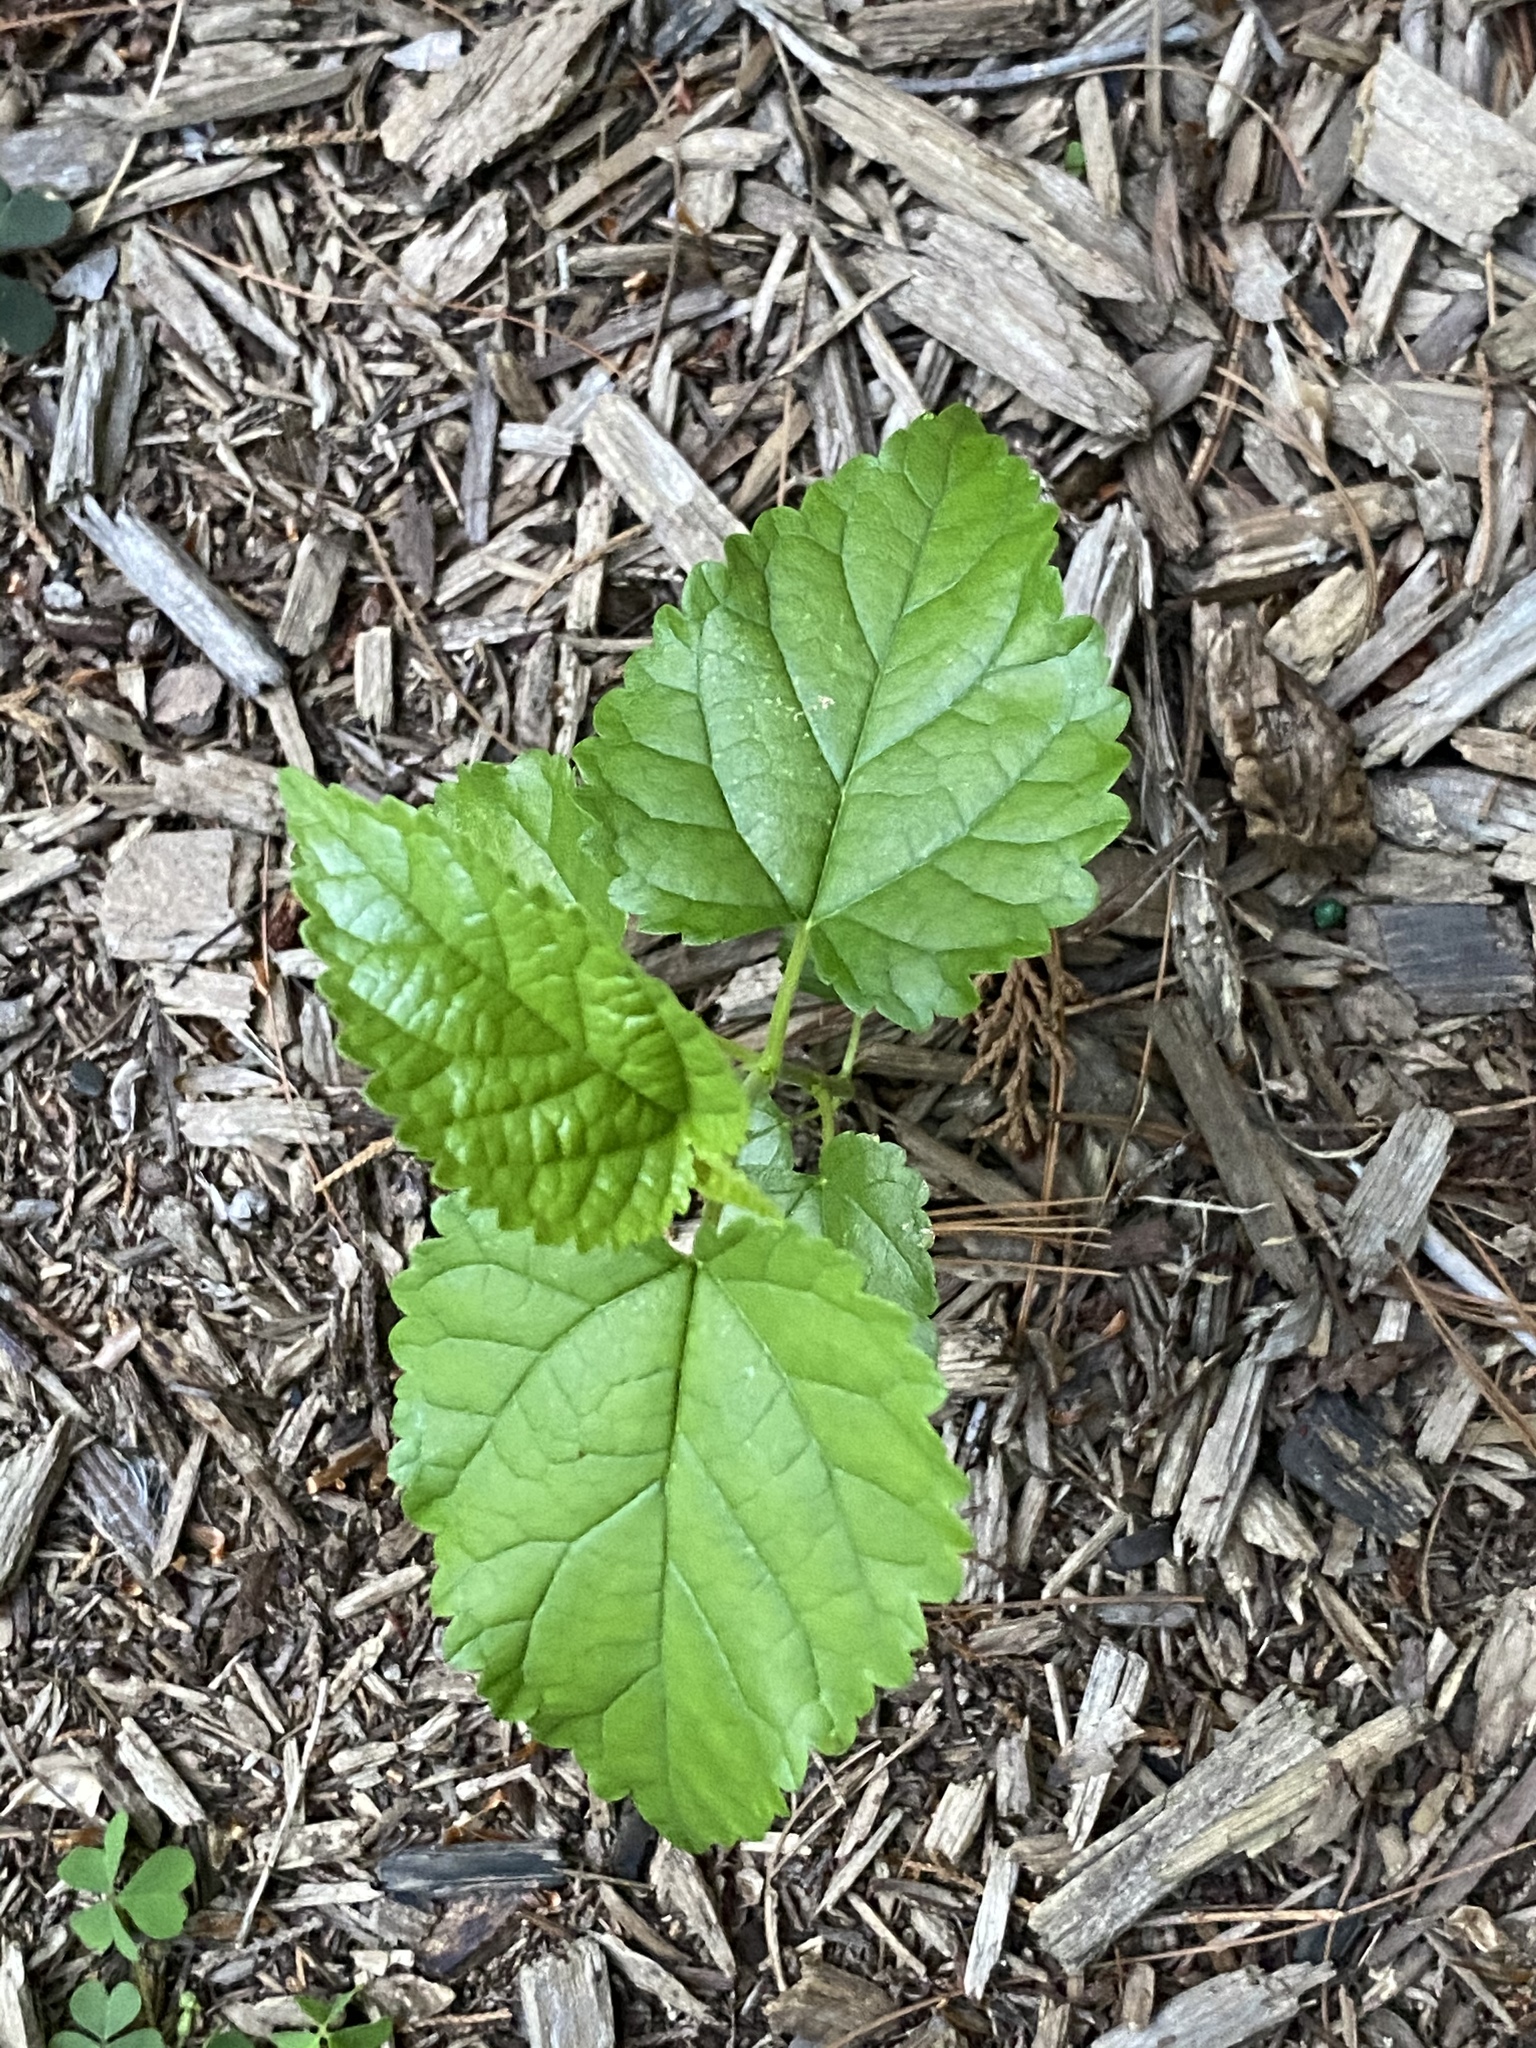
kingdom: Plantae
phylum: Tracheophyta
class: Magnoliopsida
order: Rosales
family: Moraceae
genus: Morus
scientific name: Morus alba
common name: White mulberry
